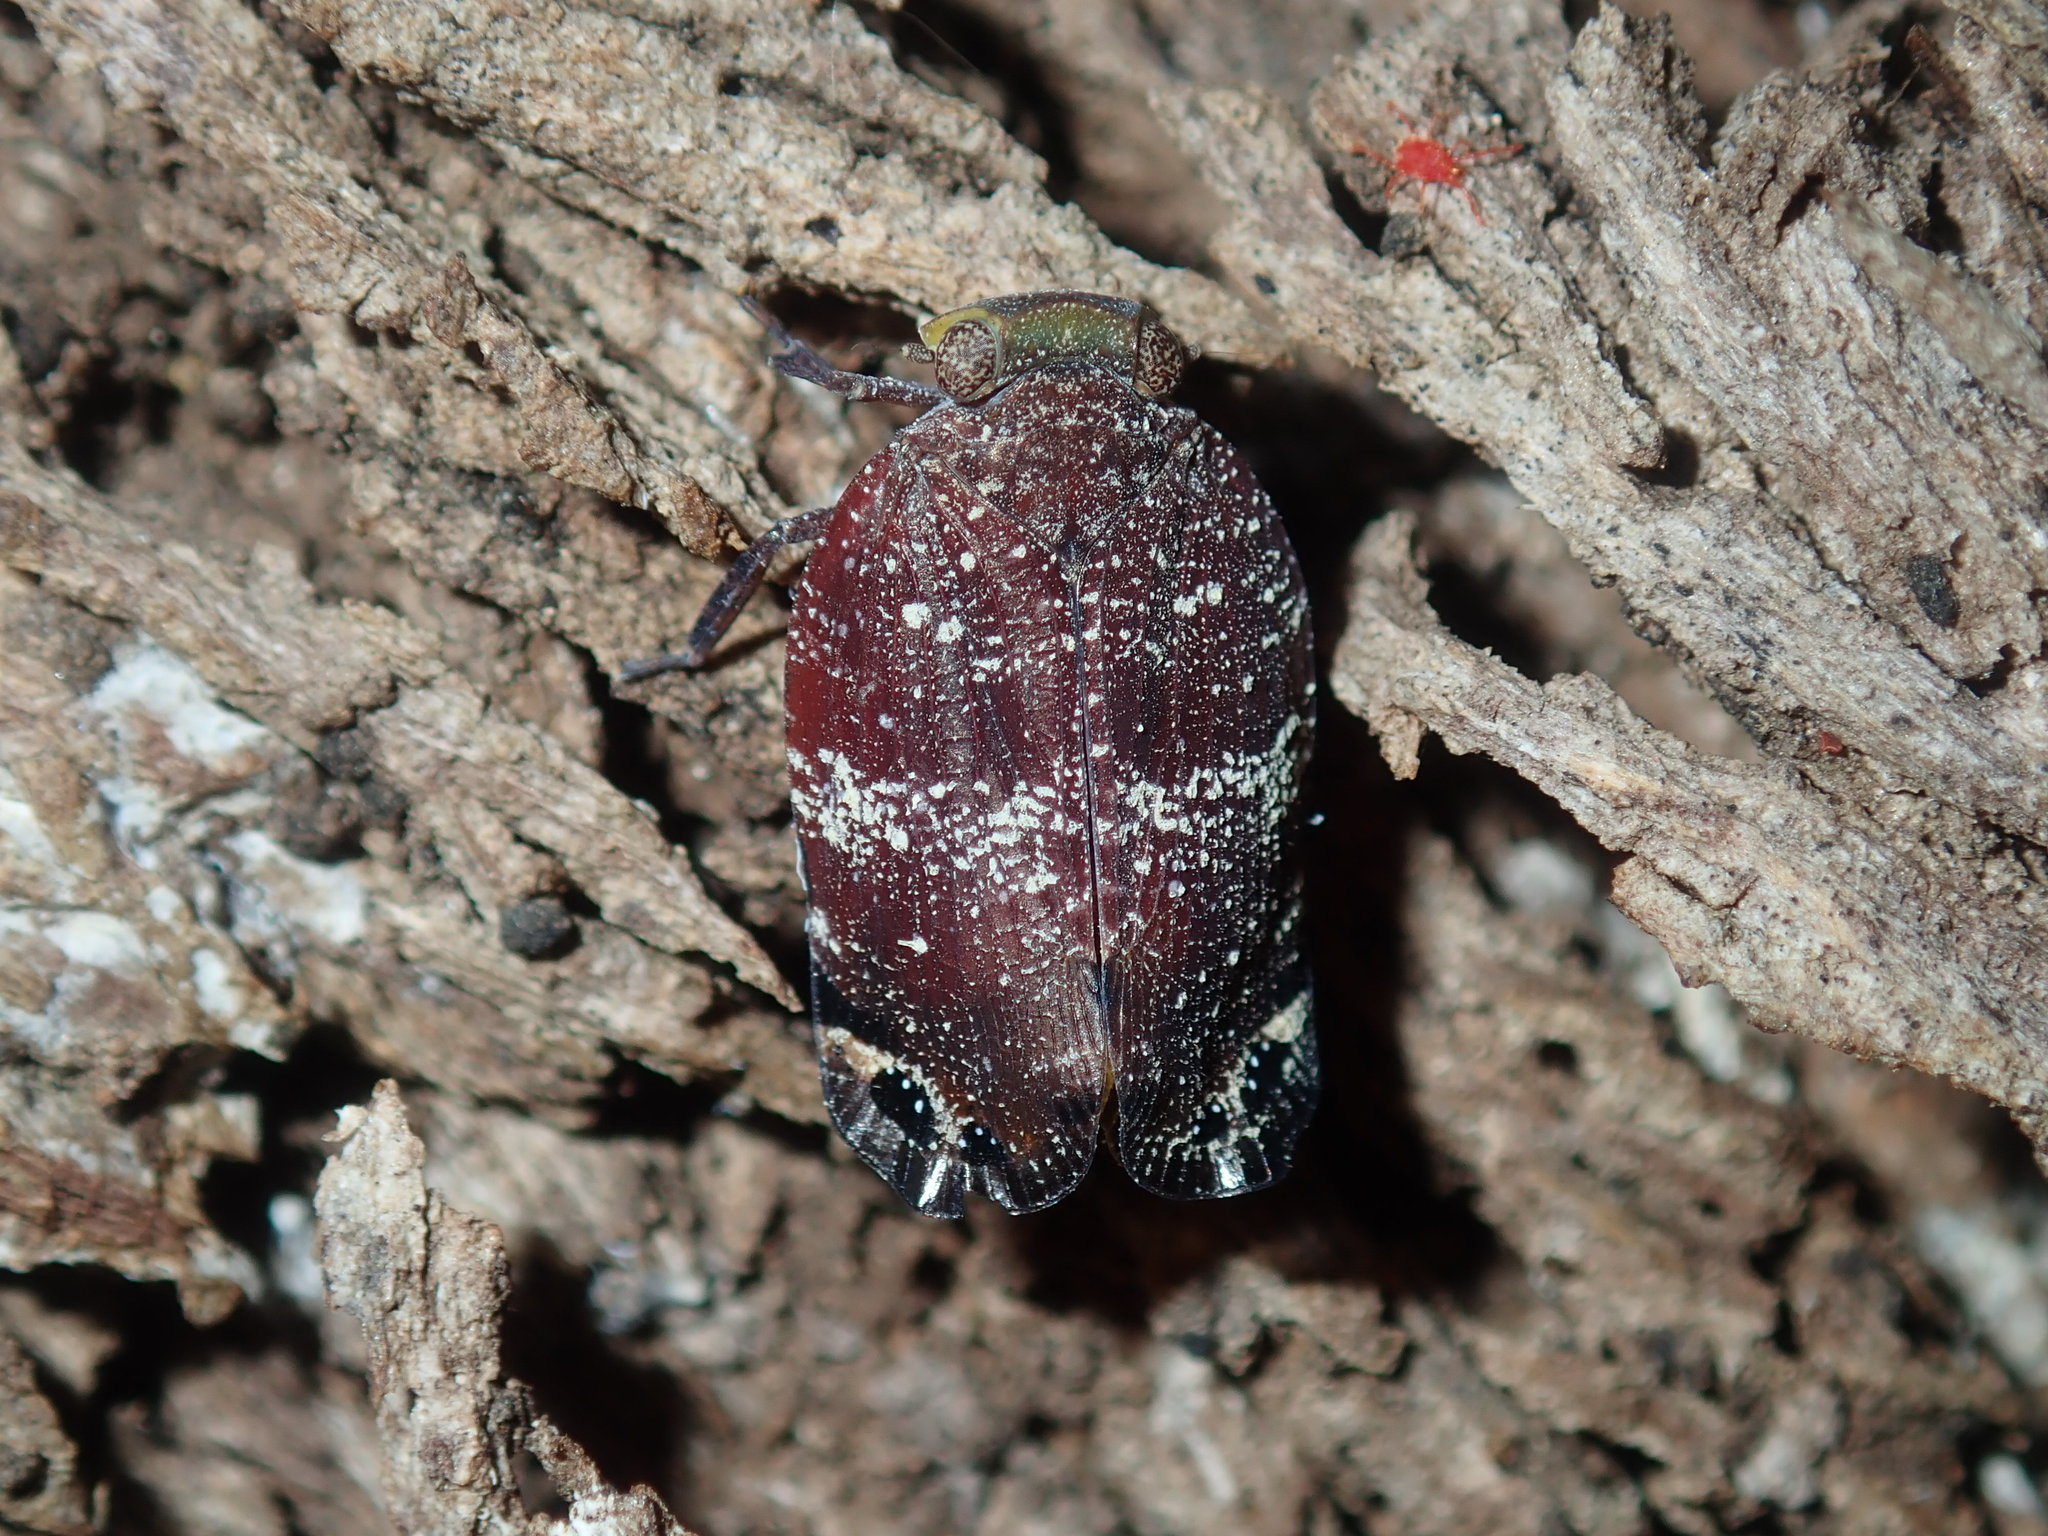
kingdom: Animalia
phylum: Arthropoda
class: Insecta
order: Hemiptera
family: Eurybrachidae
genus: Platybrachys
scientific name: Platybrachys decemmacula
